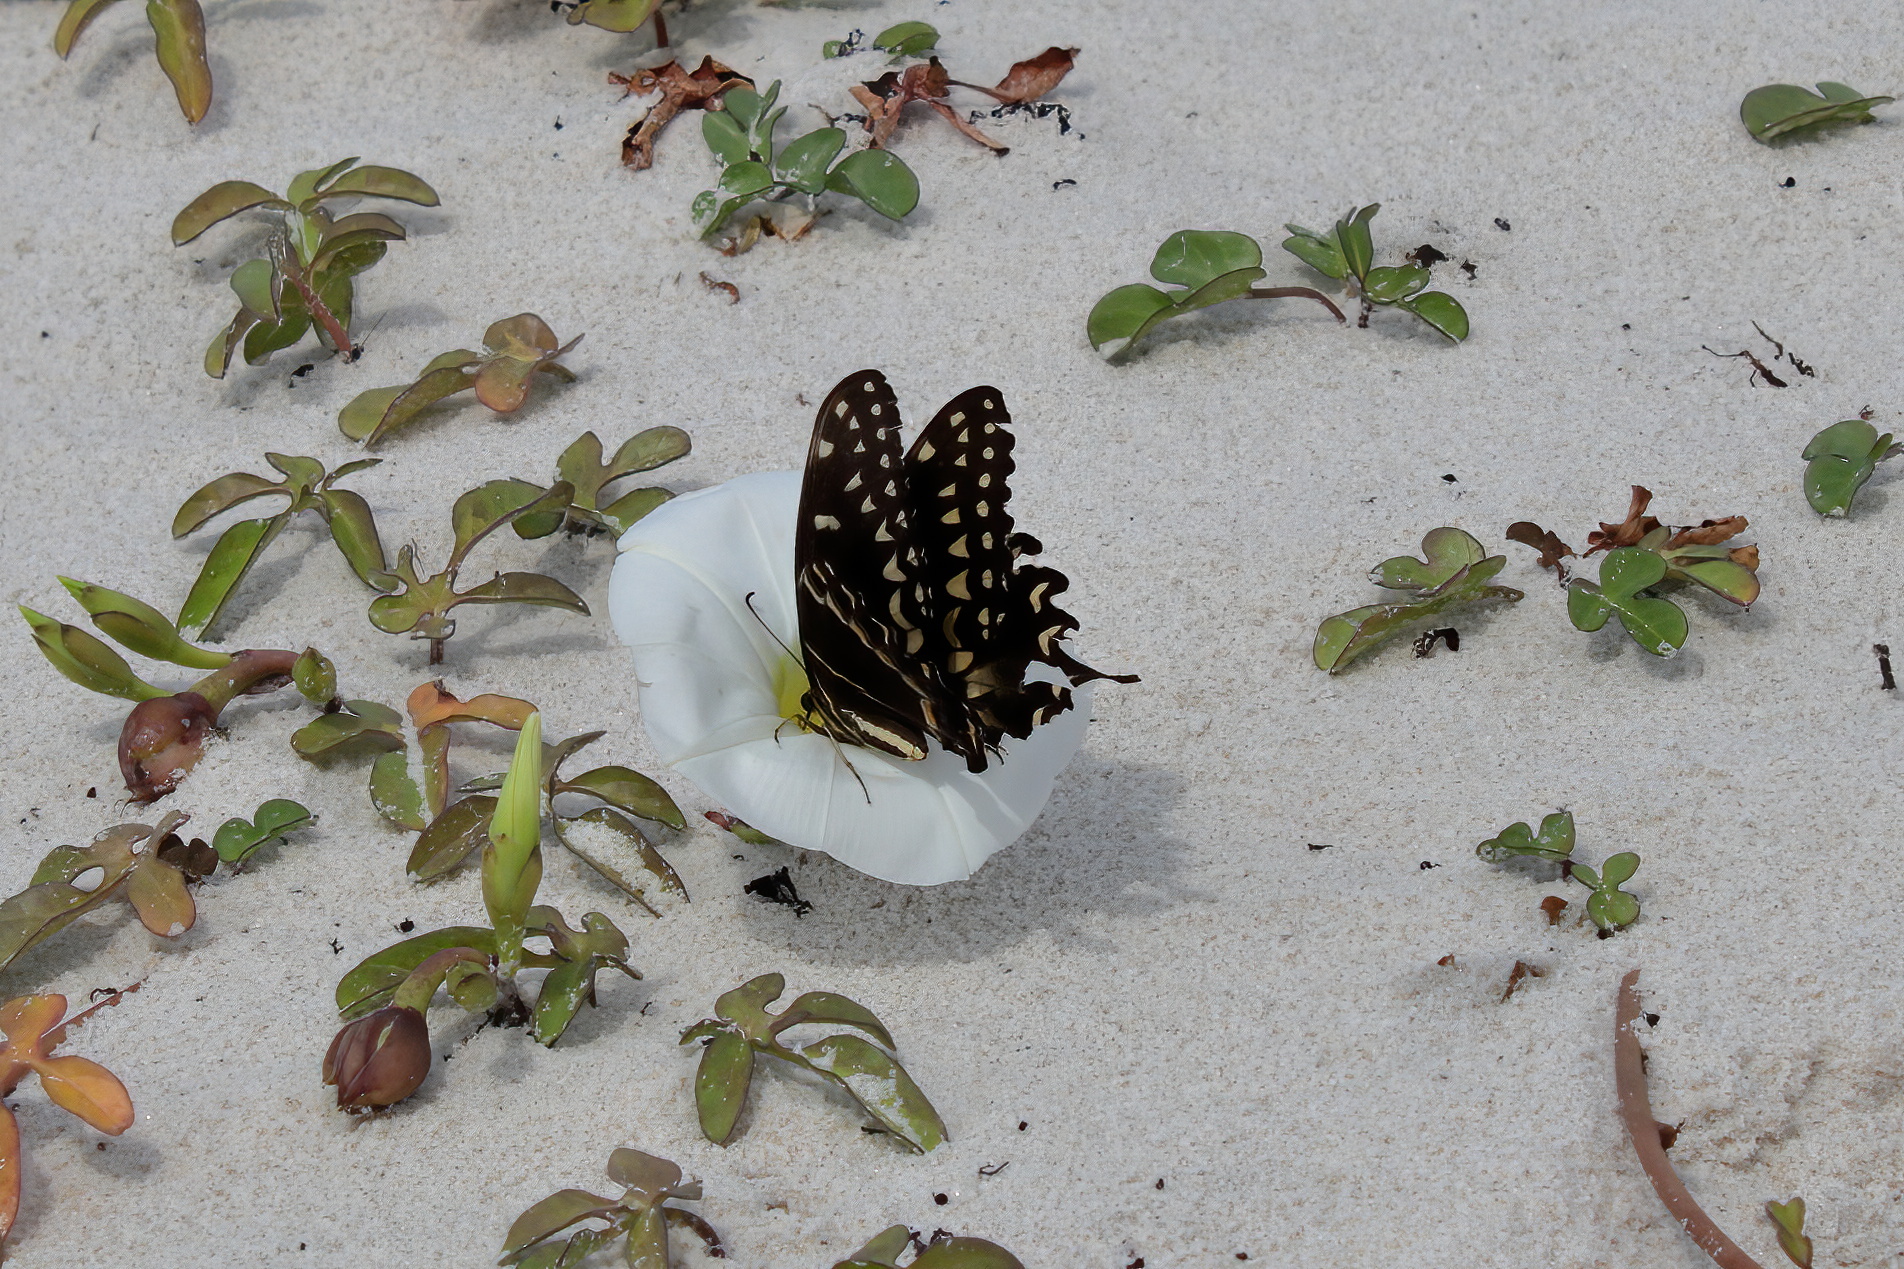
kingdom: Animalia
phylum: Arthropoda
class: Insecta
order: Lepidoptera
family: Papilionidae
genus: Papilio
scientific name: Papilio palamedes
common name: Palamedes swallowtail
